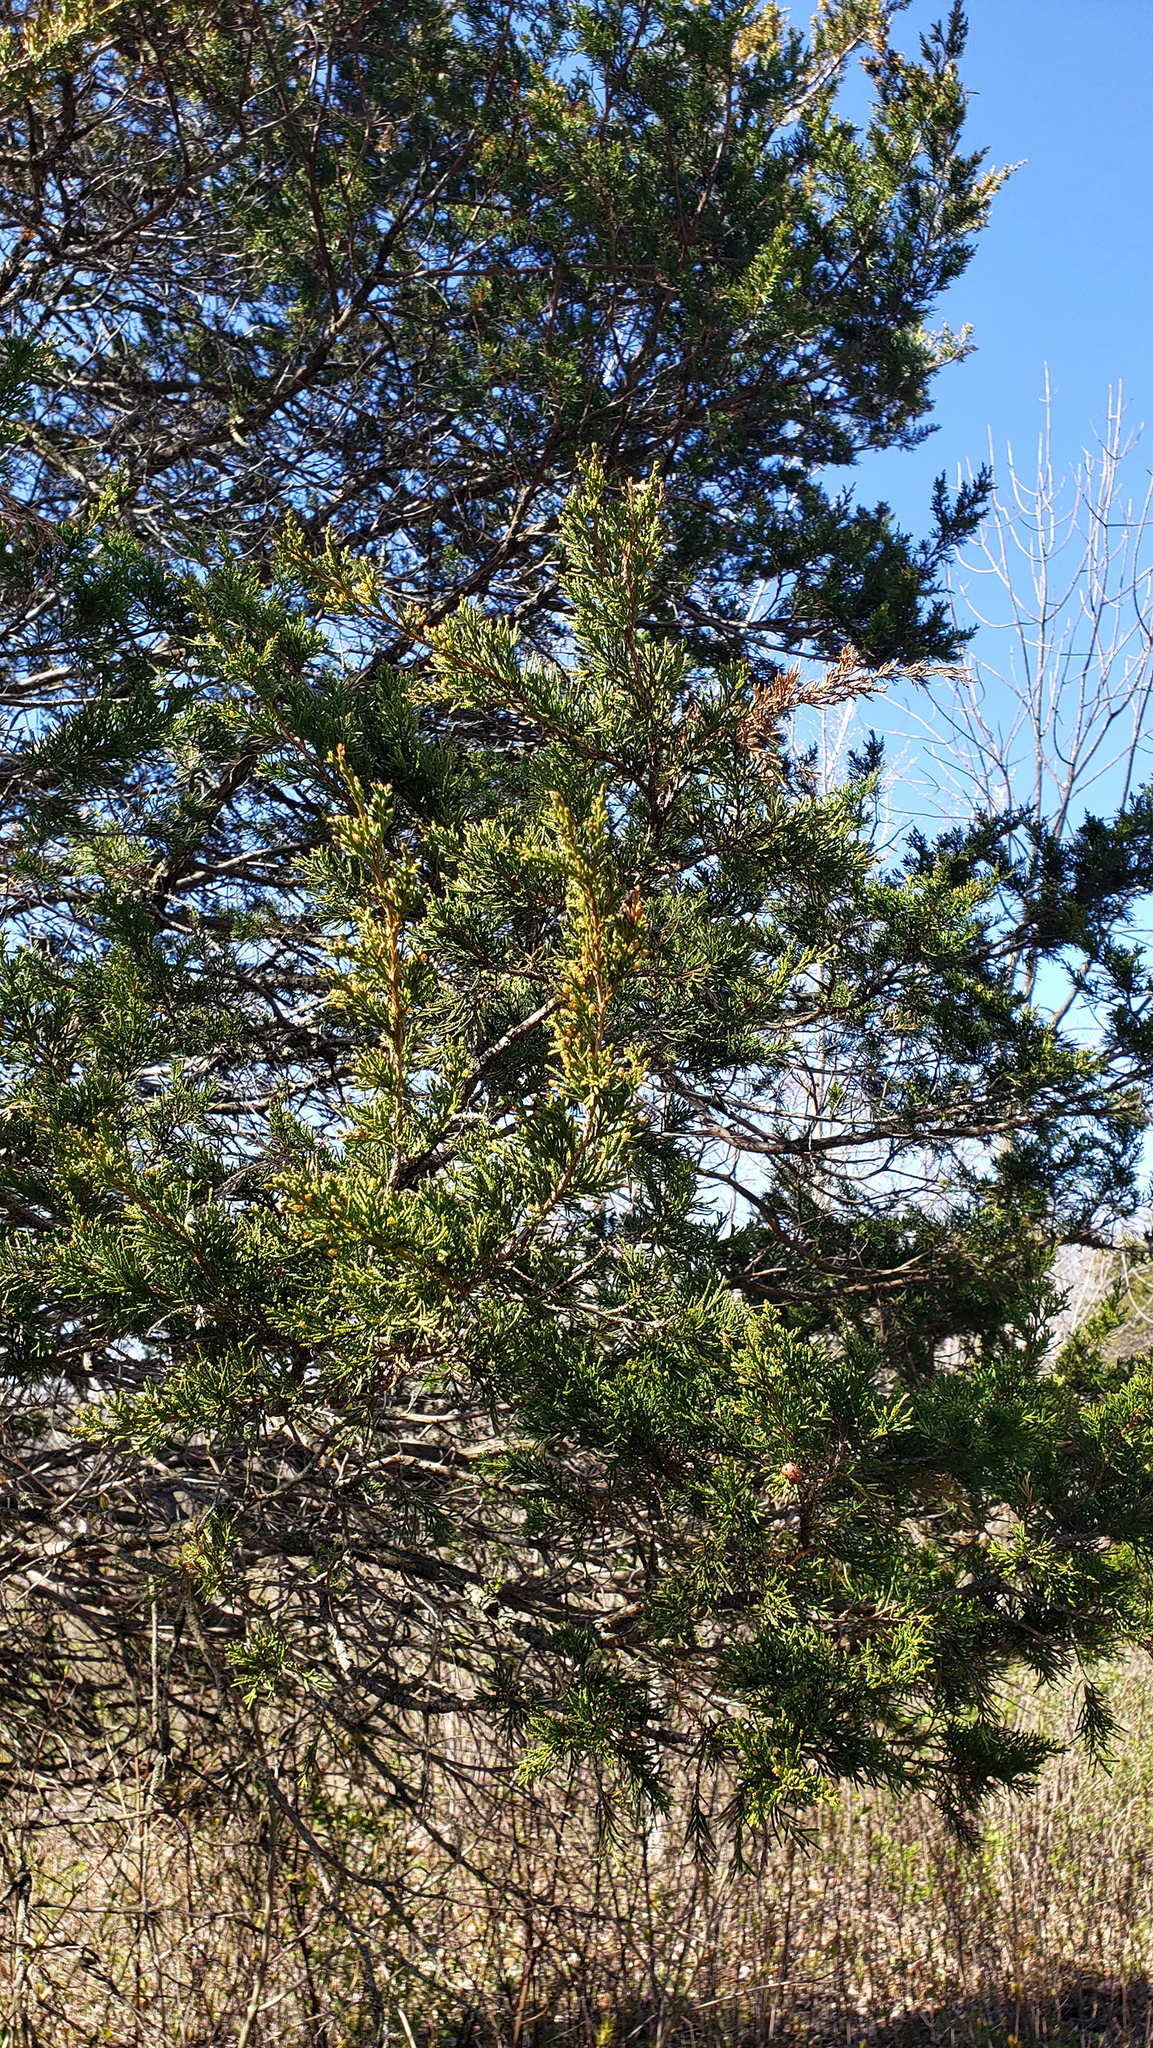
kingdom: Plantae
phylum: Tracheophyta
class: Pinopsida
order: Pinales
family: Cupressaceae
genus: Juniperus
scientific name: Juniperus virginiana
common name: Red juniper
